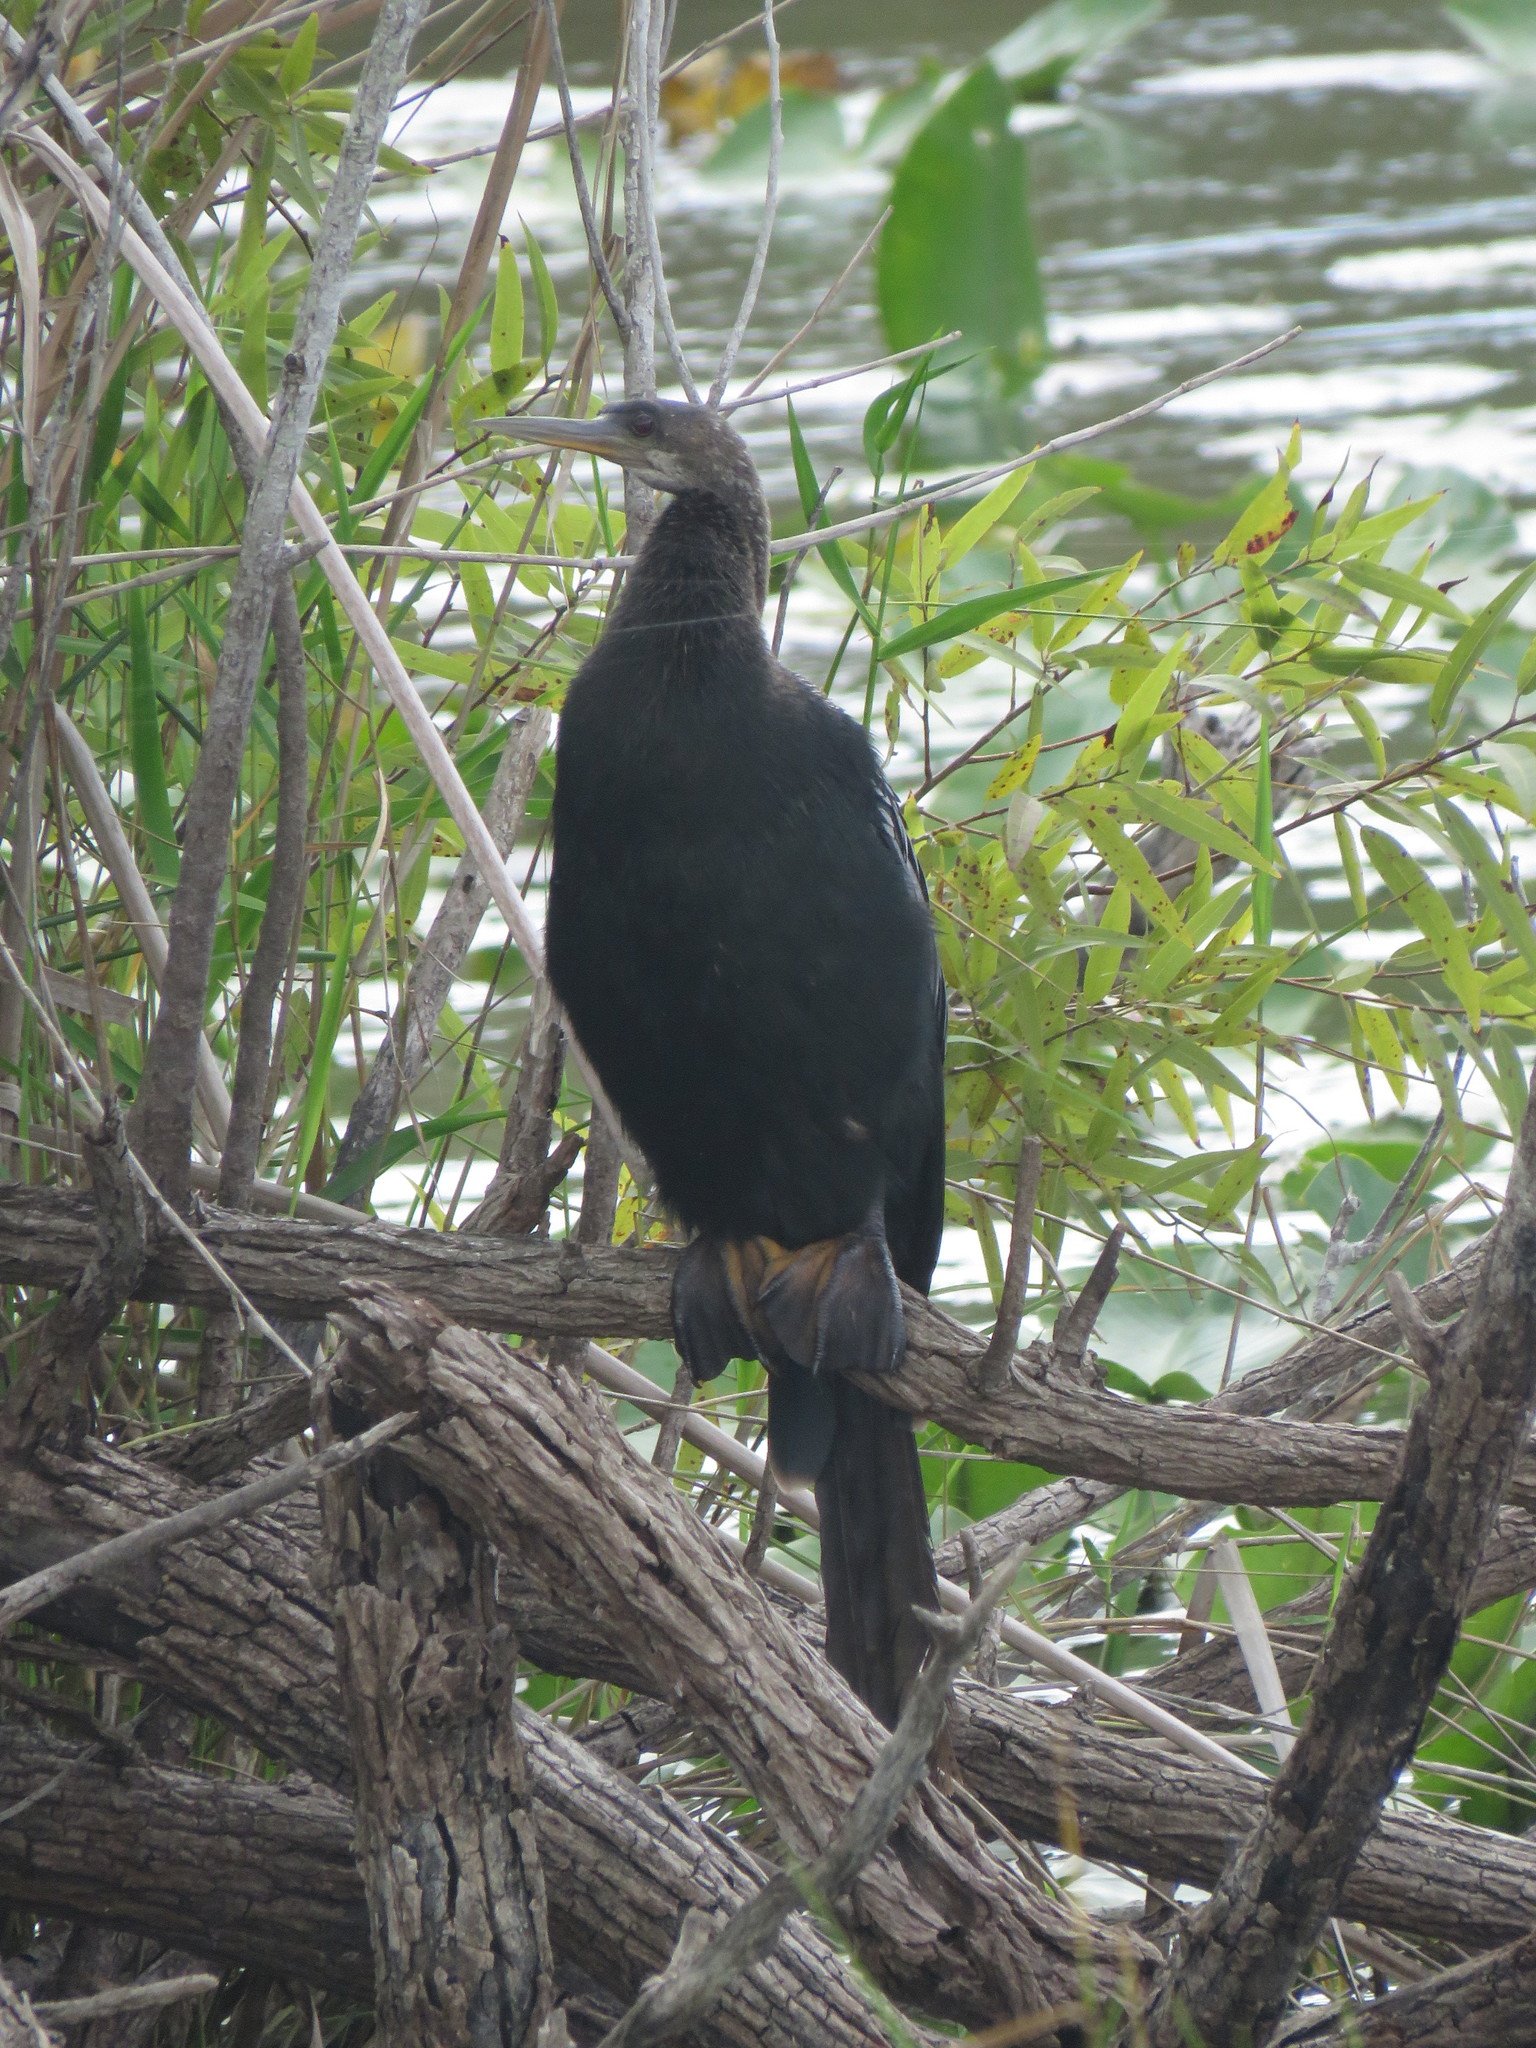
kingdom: Animalia
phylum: Chordata
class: Aves
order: Suliformes
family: Anhingidae
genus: Anhinga
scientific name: Anhinga anhinga
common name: Anhinga
